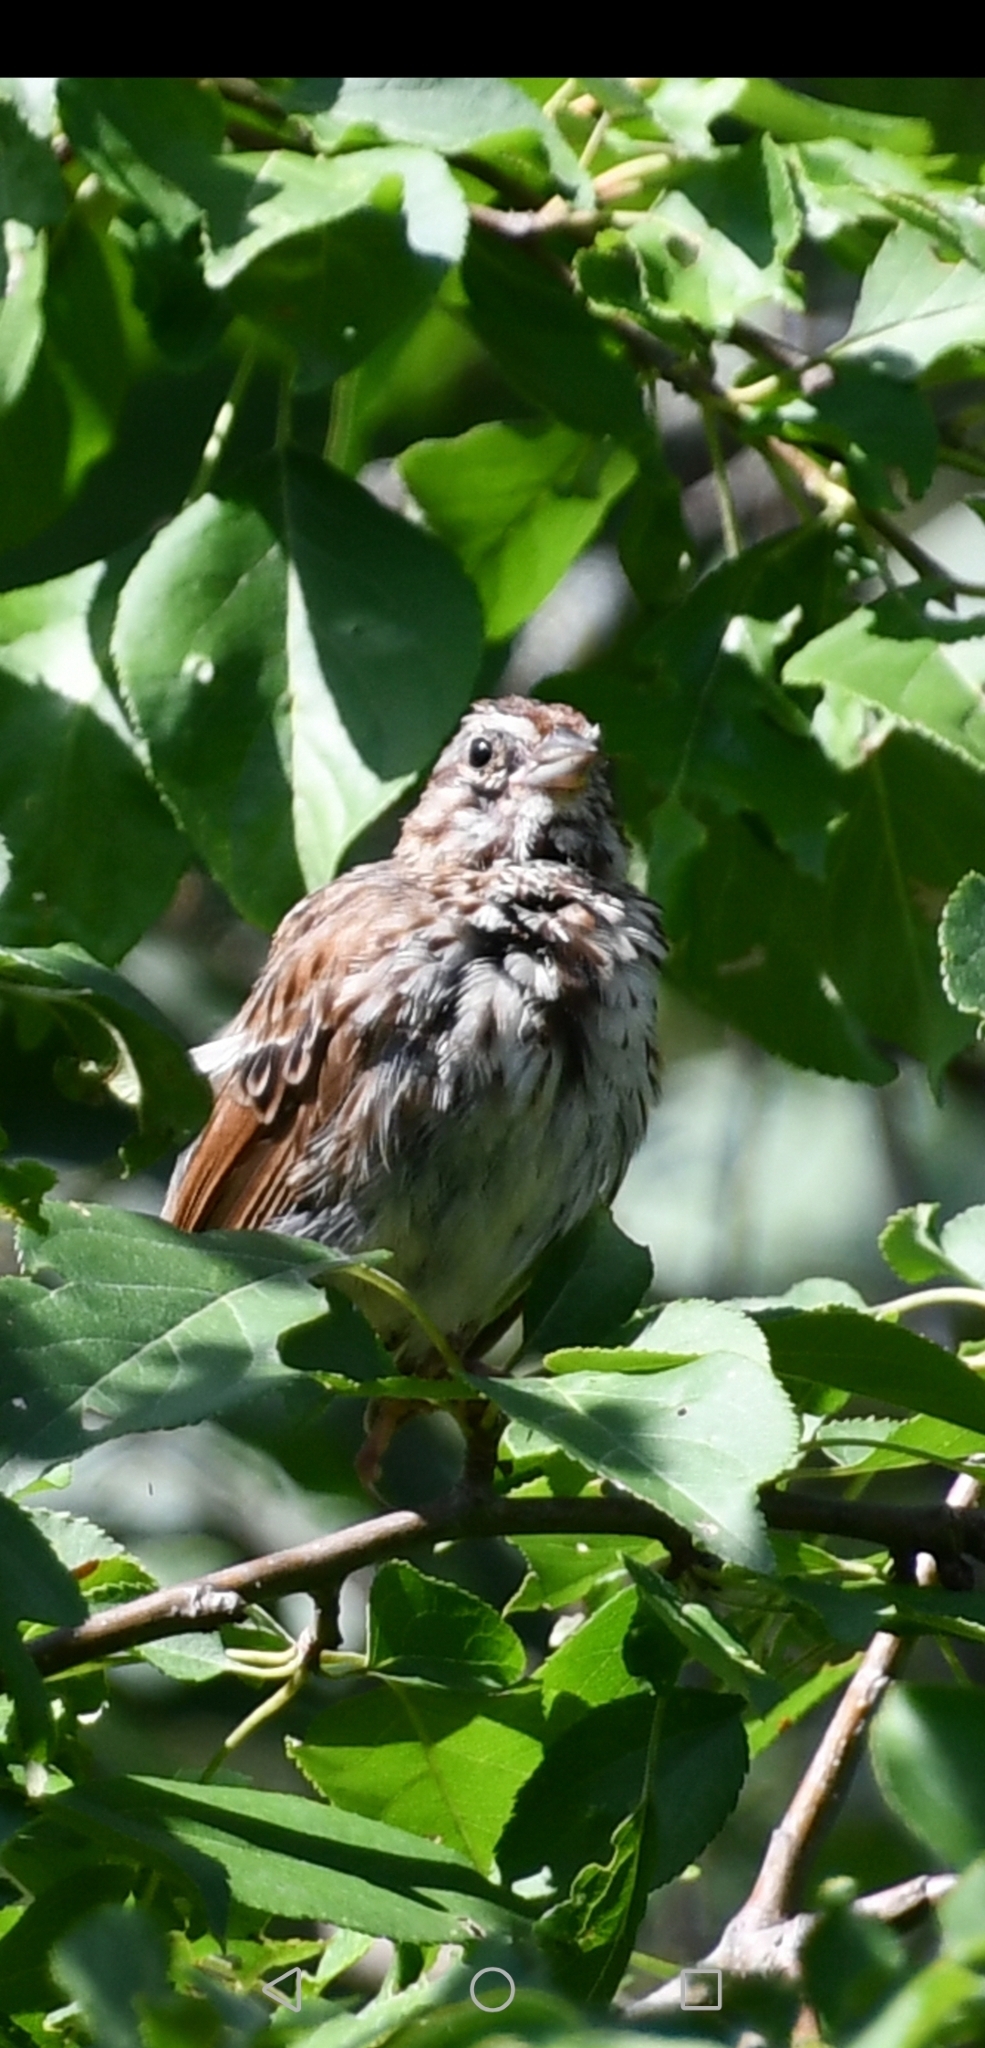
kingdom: Animalia
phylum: Chordata
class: Aves
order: Passeriformes
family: Passerellidae
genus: Melospiza
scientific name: Melospiza melodia
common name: Song sparrow
